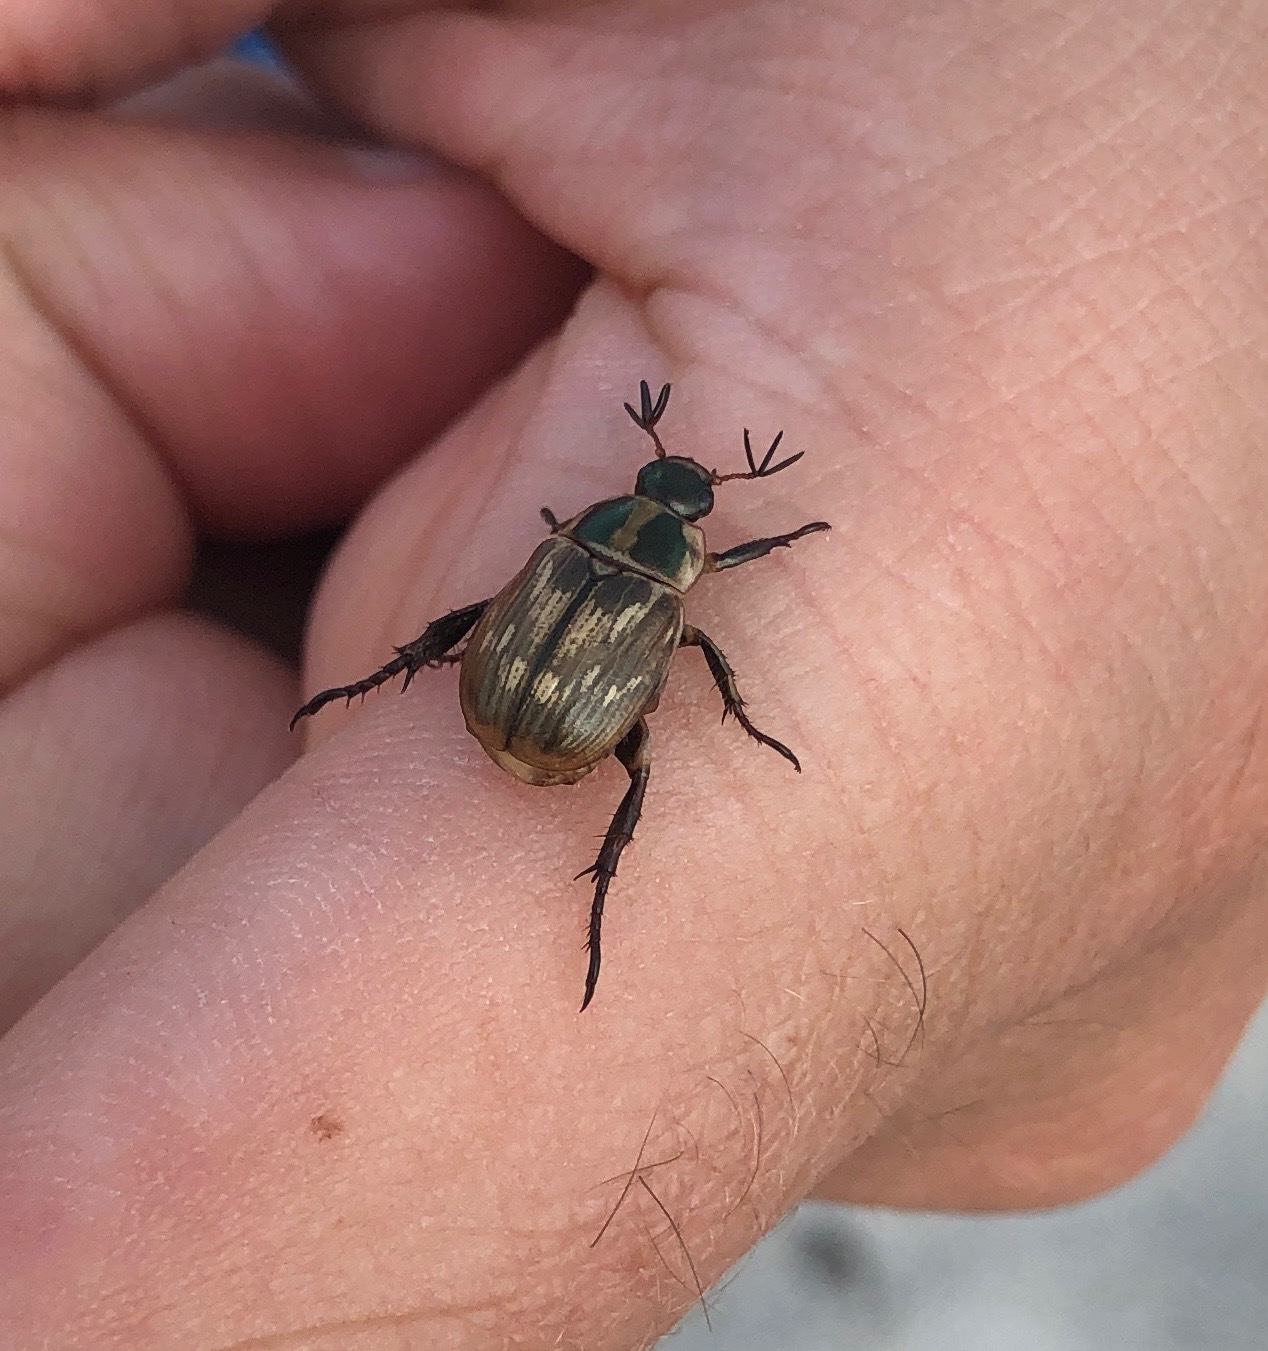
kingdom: Animalia
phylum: Arthropoda
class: Insecta
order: Coleoptera
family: Scarabaeidae
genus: Exomala
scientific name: Exomala orientalis
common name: Oriental beetle
